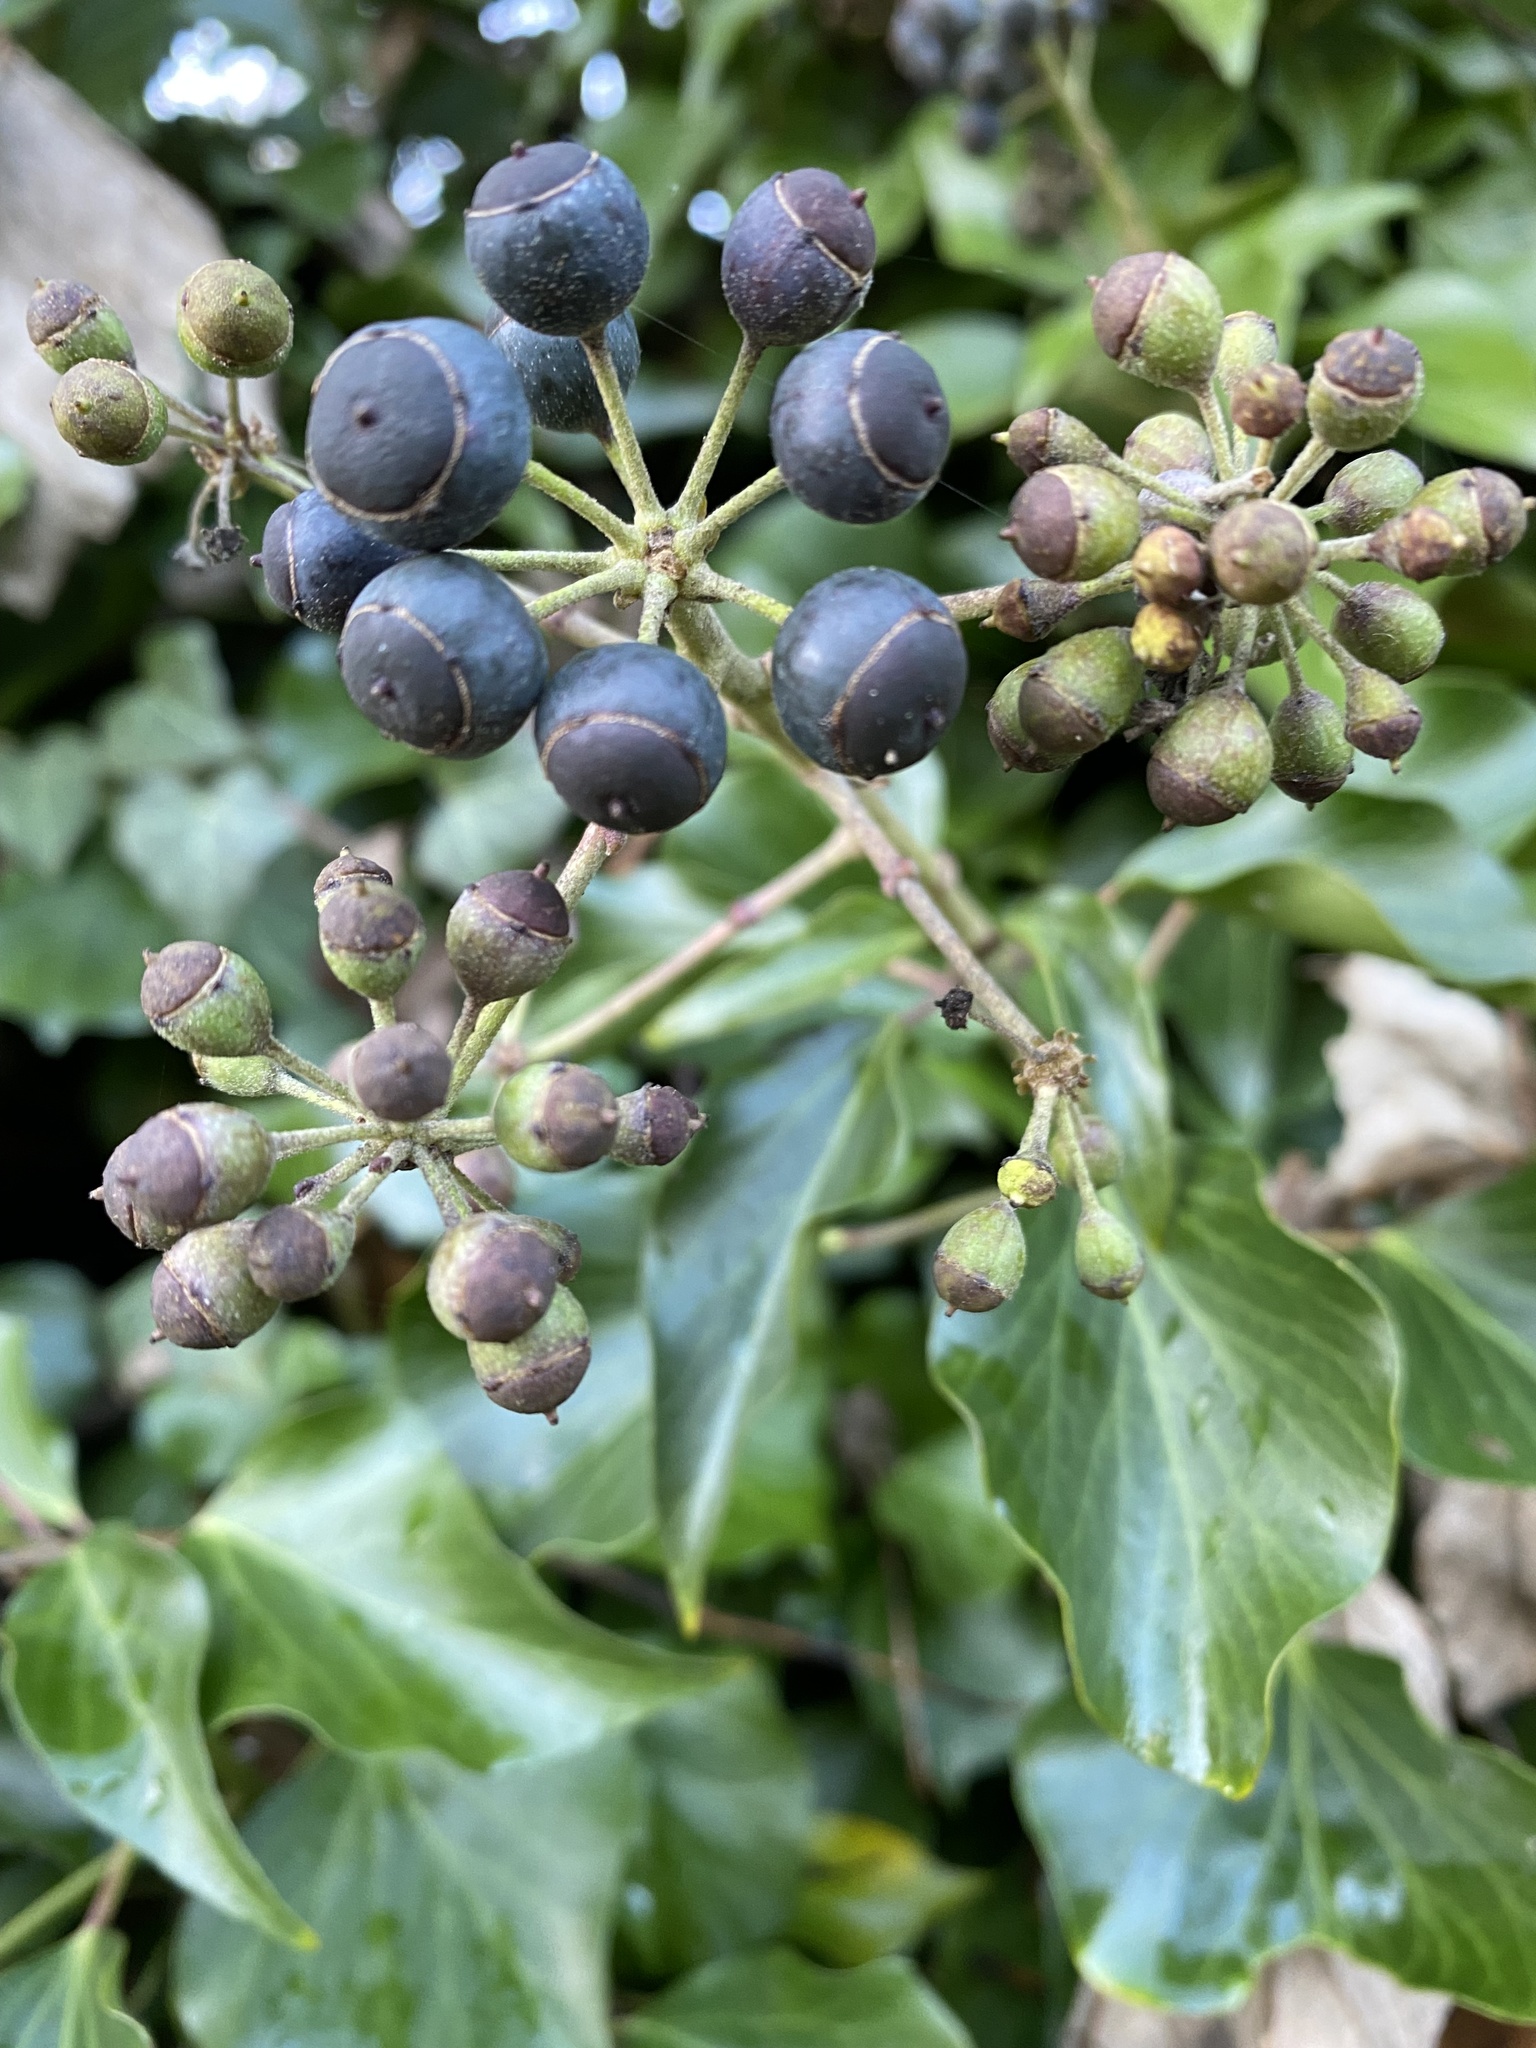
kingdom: Plantae
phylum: Tracheophyta
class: Magnoliopsida
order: Apiales
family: Araliaceae
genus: Hedera
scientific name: Hedera helix
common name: Ivy
